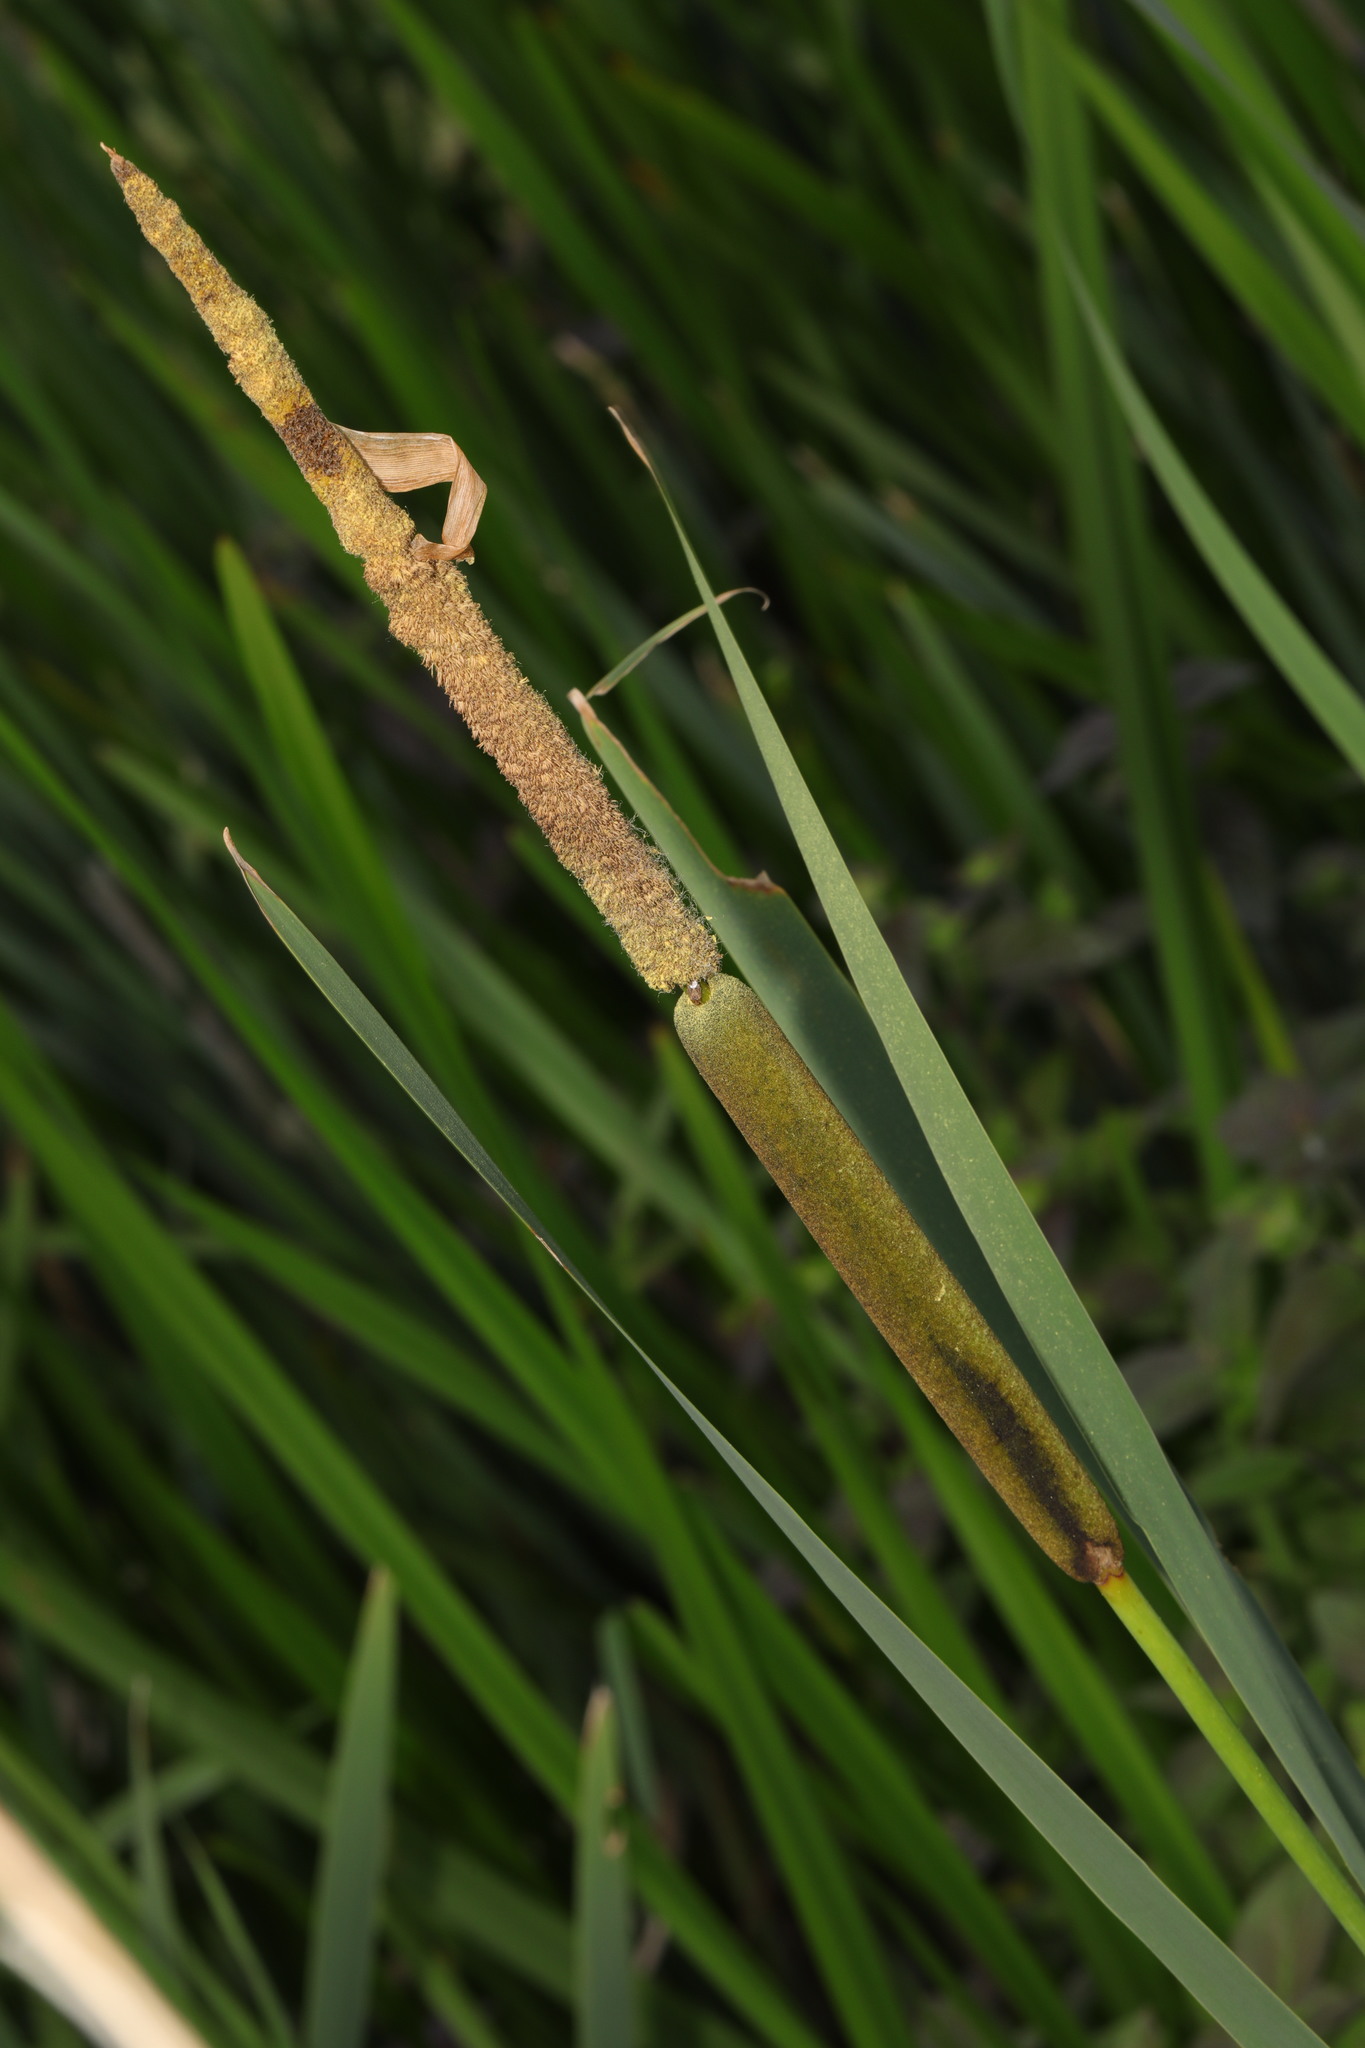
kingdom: Plantae
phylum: Tracheophyta
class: Liliopsida
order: Poales
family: Typhaceae
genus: Typha
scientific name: Typha angustifolia
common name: Lesser bulrush
